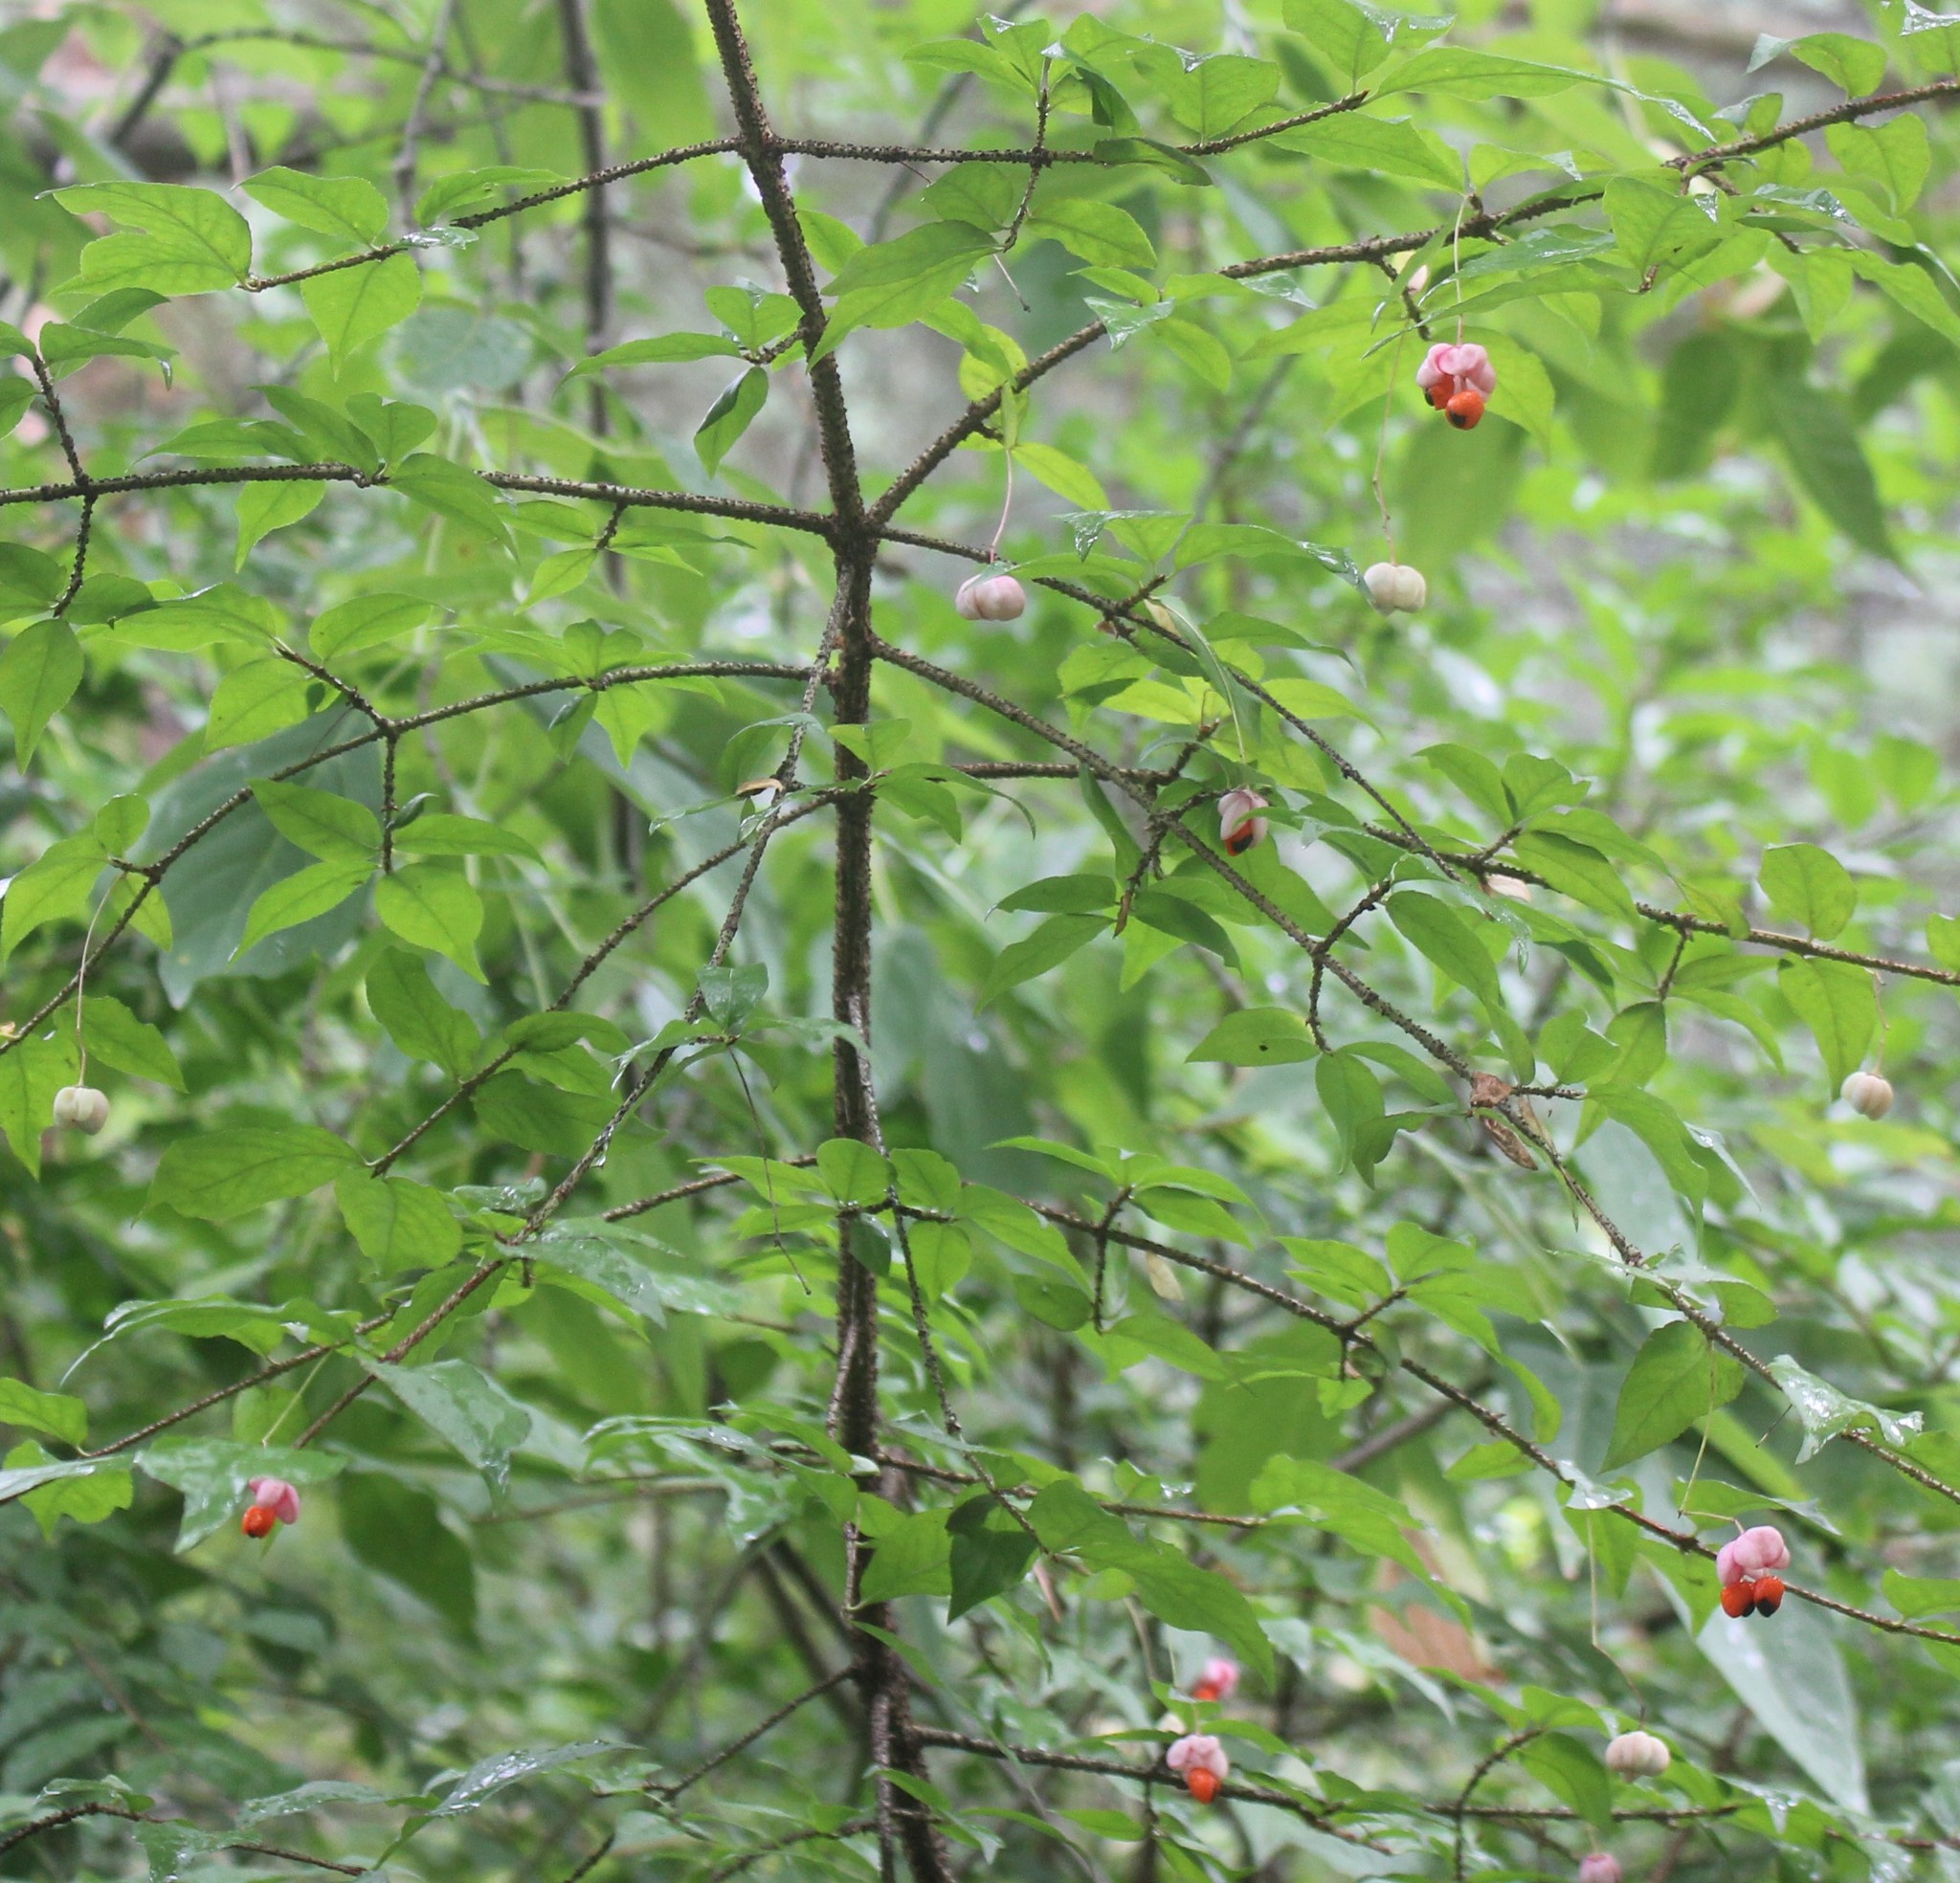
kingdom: Plantae
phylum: Tracheophyta
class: Magnoliopsida
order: Celastrales
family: Celastraceae
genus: Euonymus
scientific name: Euonymus verrucosus
